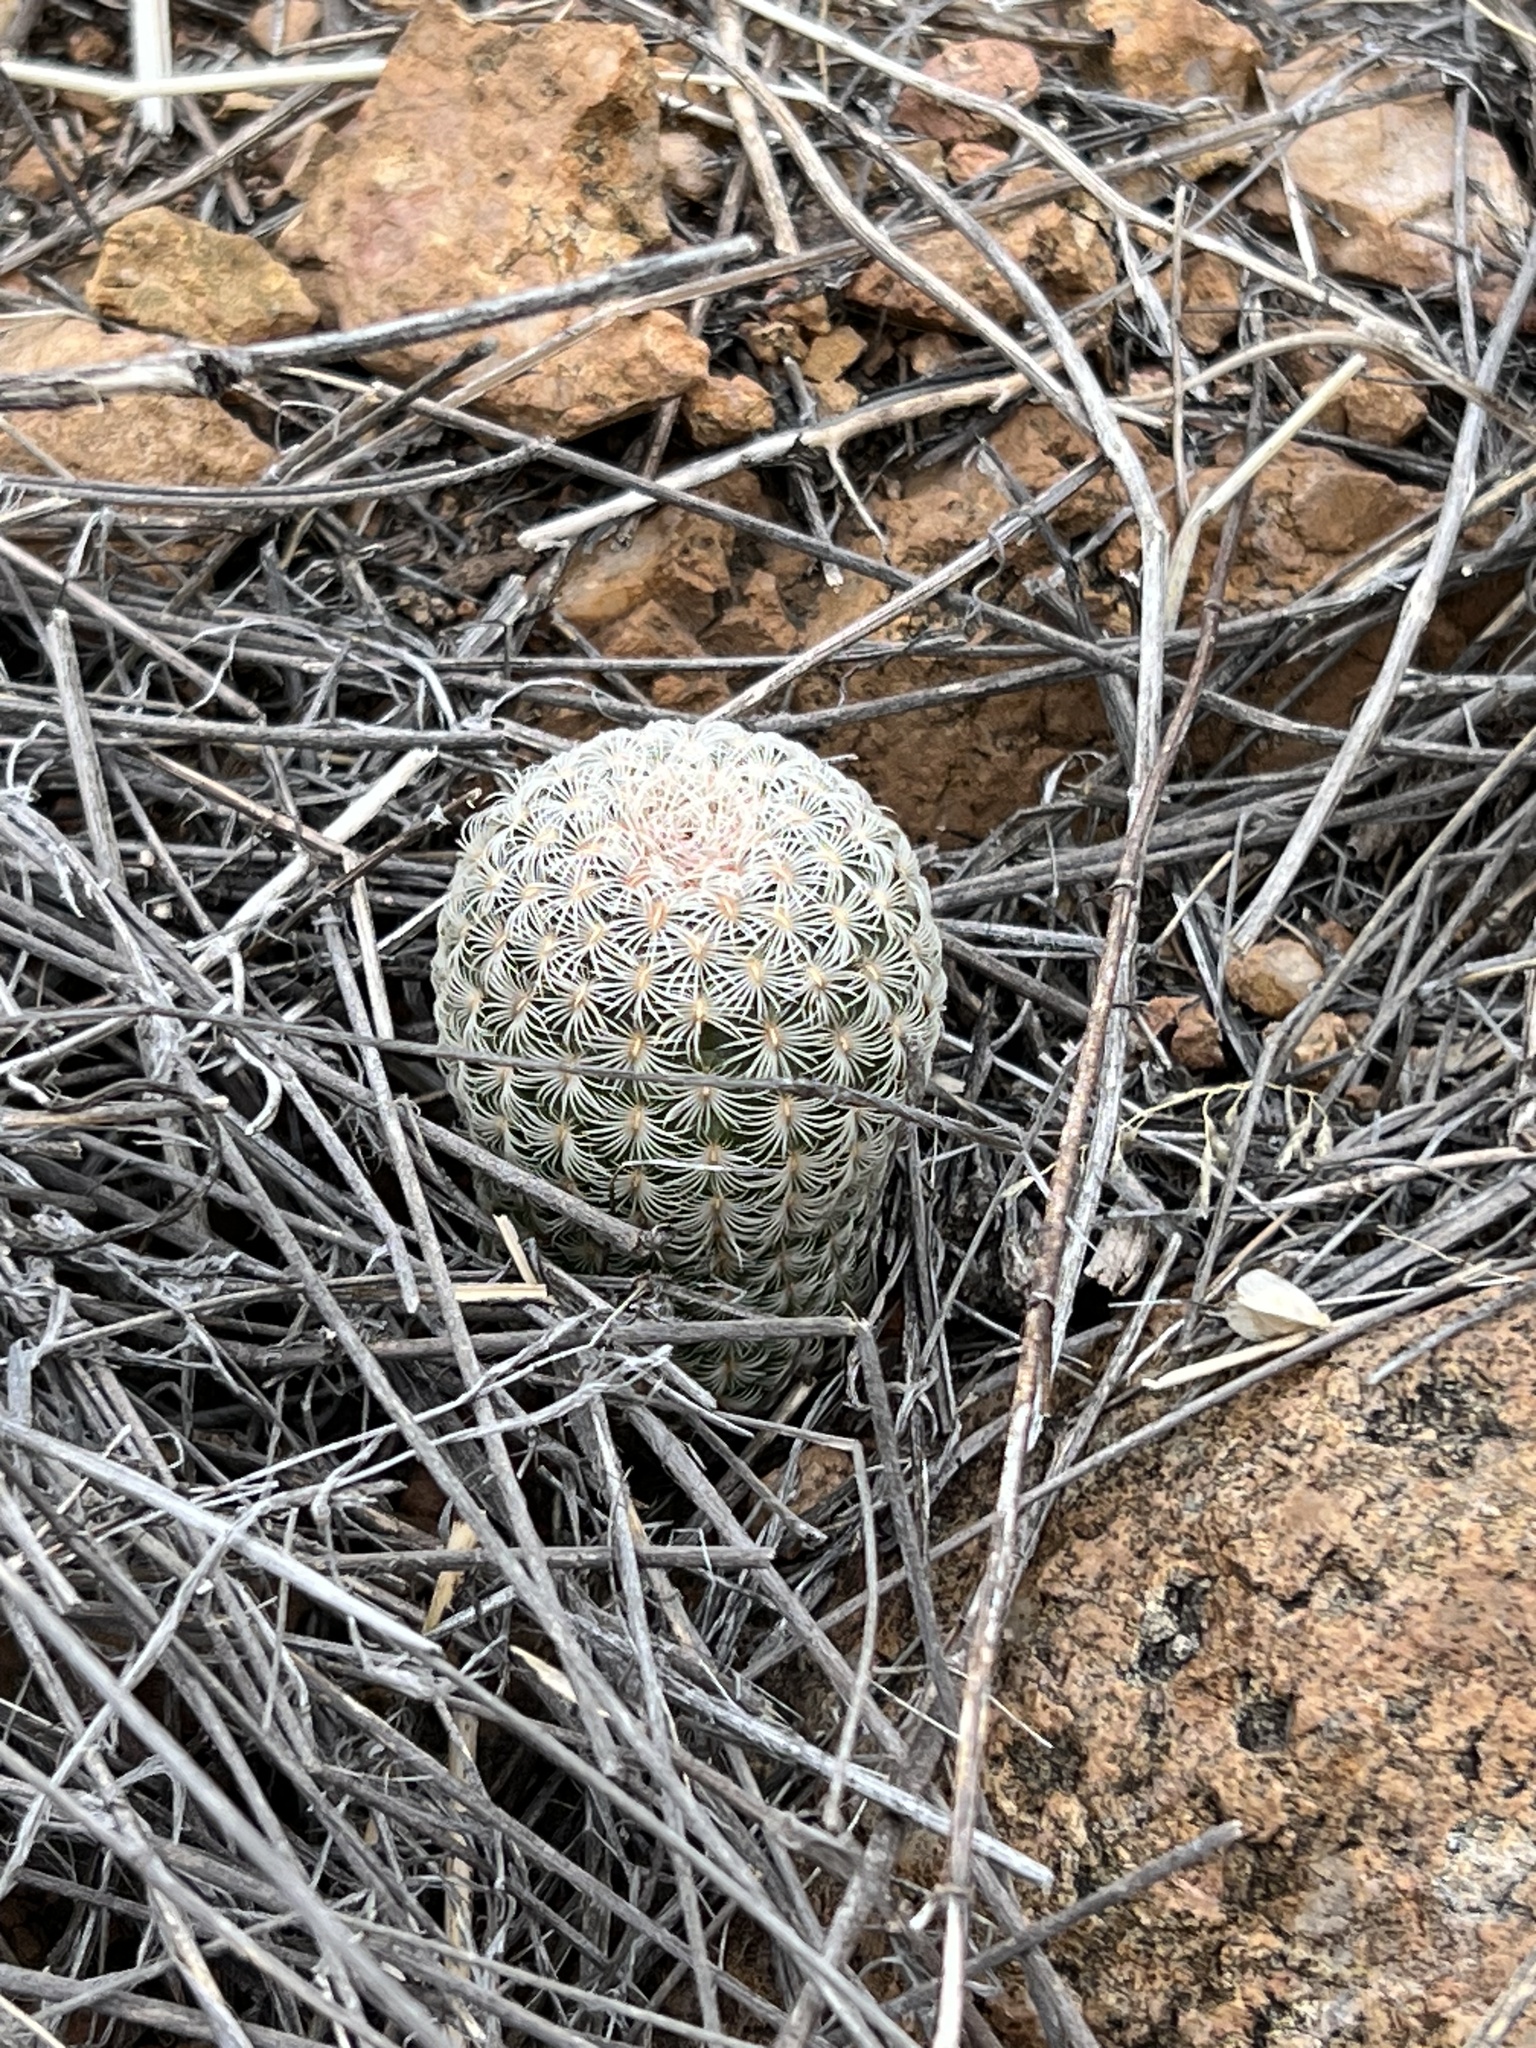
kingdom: Plantae
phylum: Tracheophyta
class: Magnoliopsida
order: Caryophyllales
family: Cactaceae
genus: Echinocereus
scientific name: Echinocereus rigidissimus
